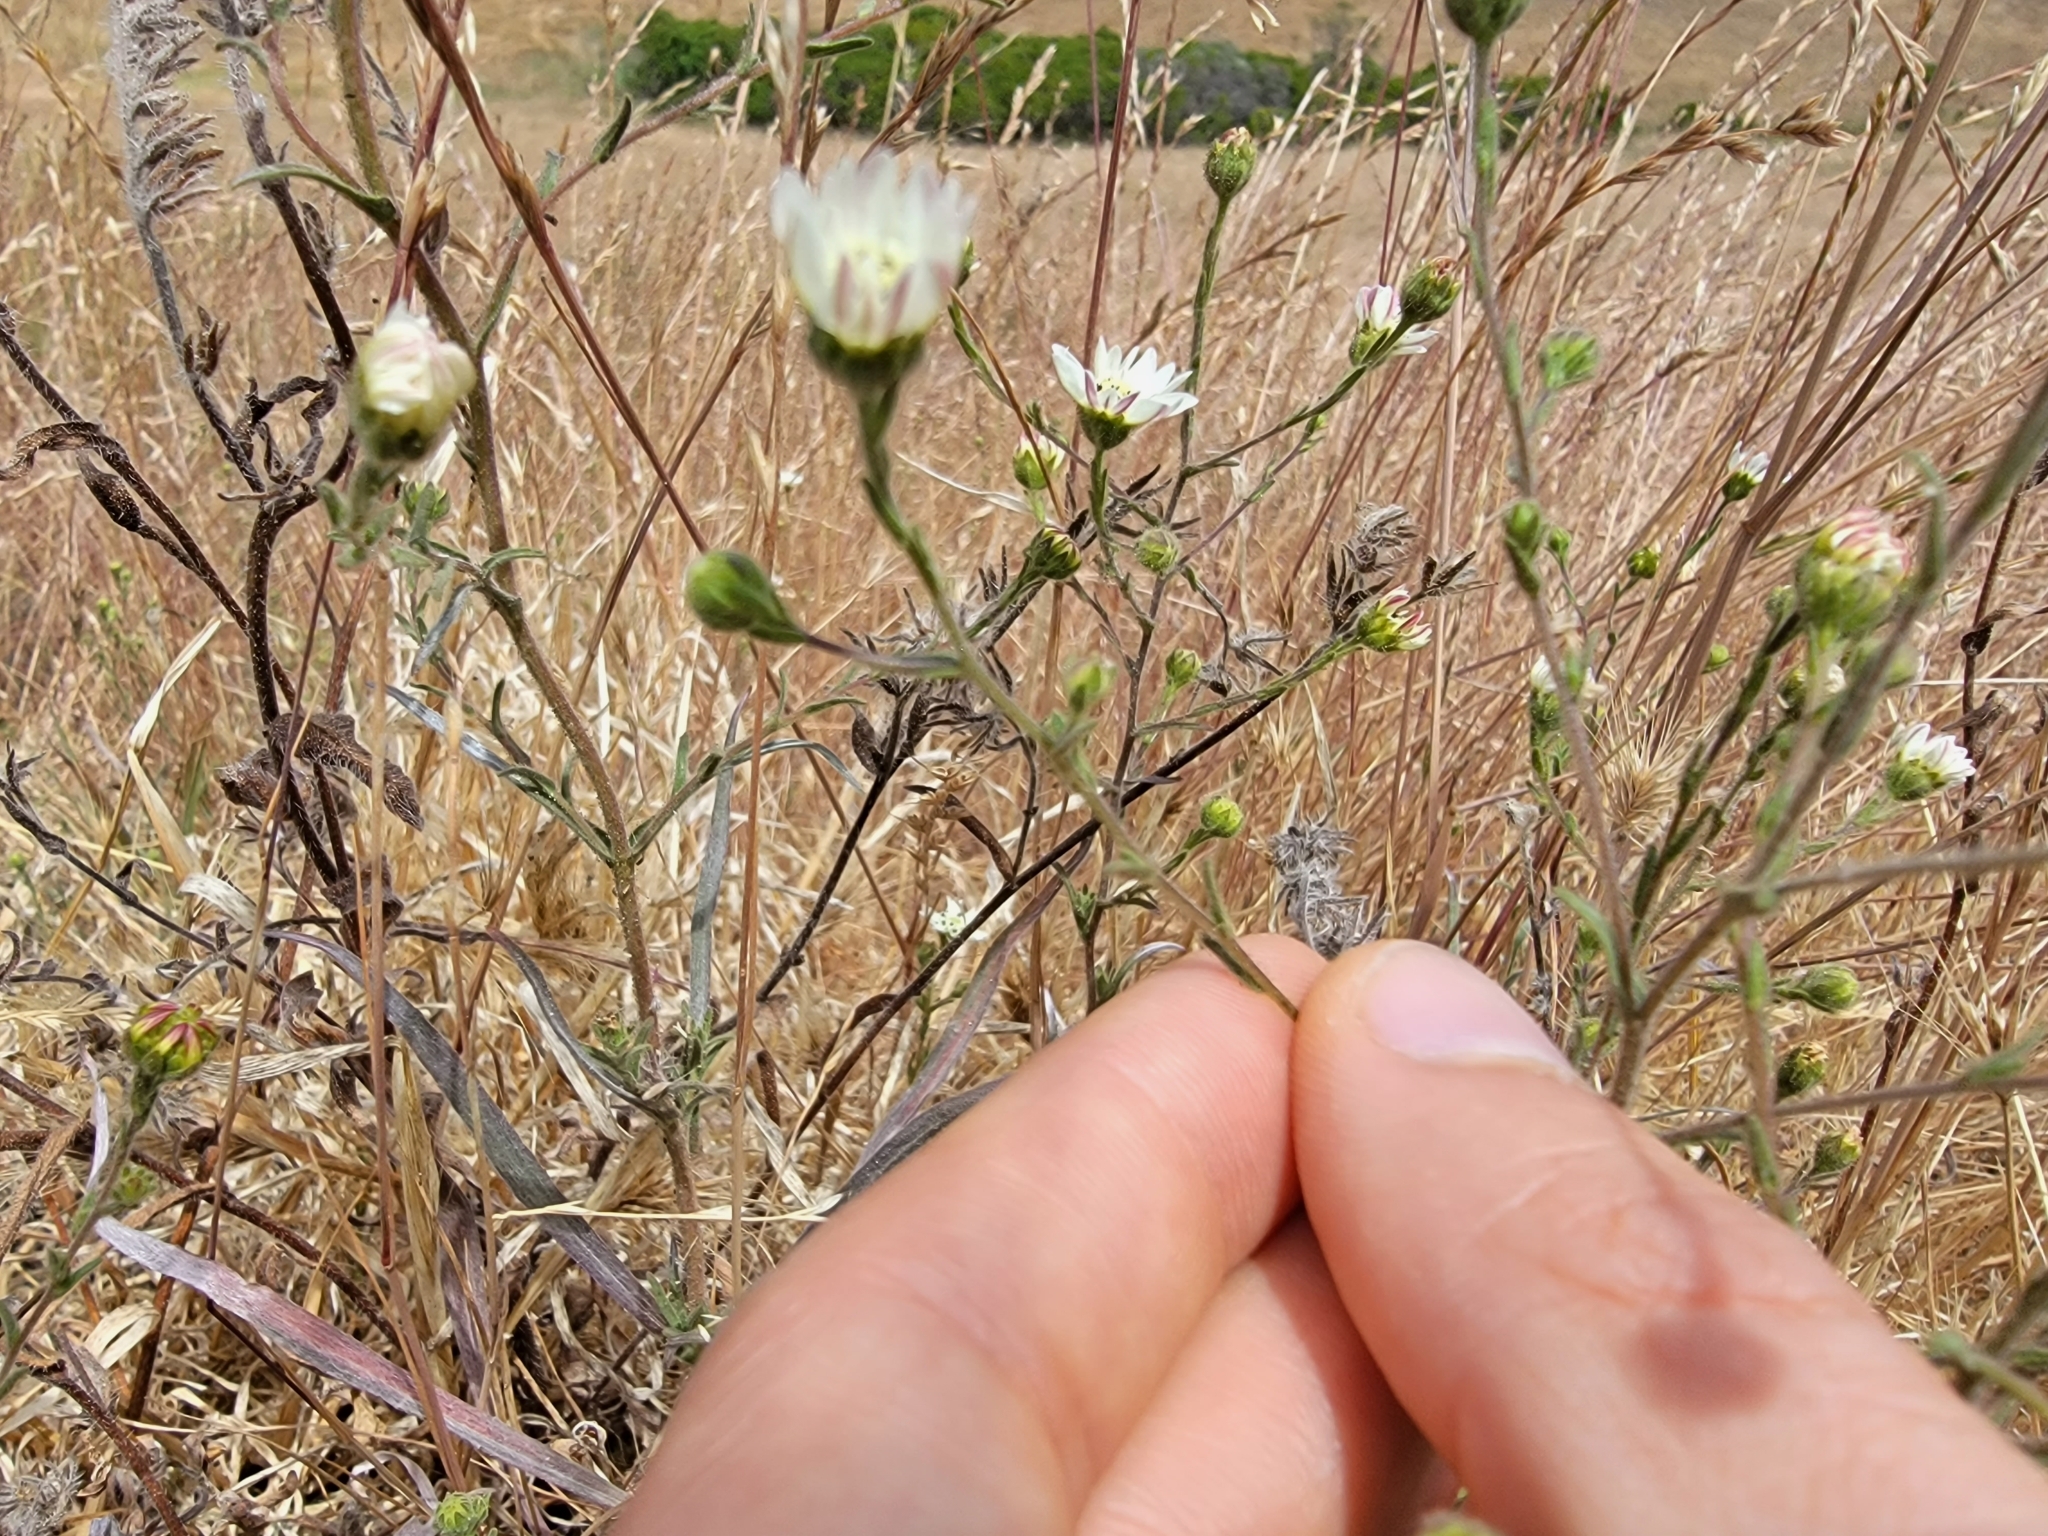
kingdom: Plantae
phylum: Tracheophyta
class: Magnoliopsida
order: Asterales
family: Asteraceae
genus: Hemizonia
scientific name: Hemizonia congesta
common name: Hayfield tarweed
